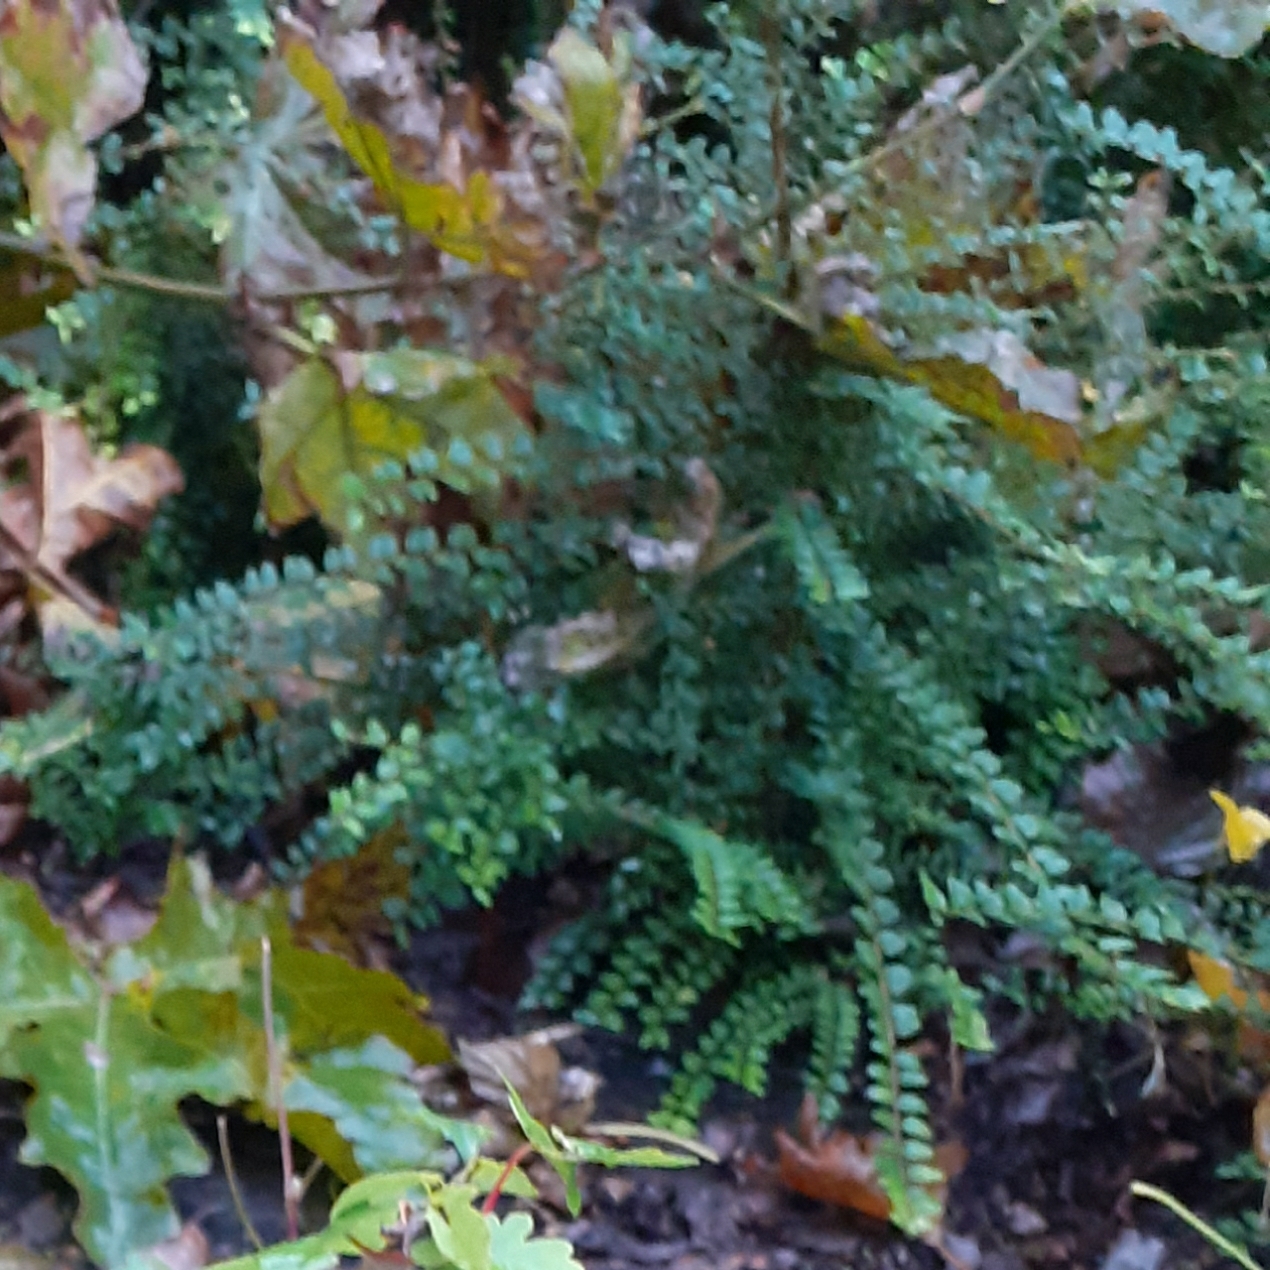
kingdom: Plantae
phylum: Tracheophyta
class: Polypodiopsida
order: Polypodiales
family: Aspleniaceae
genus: Asplenium
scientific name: Asplenium trichomanes
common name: Maidenhair spleenwort
